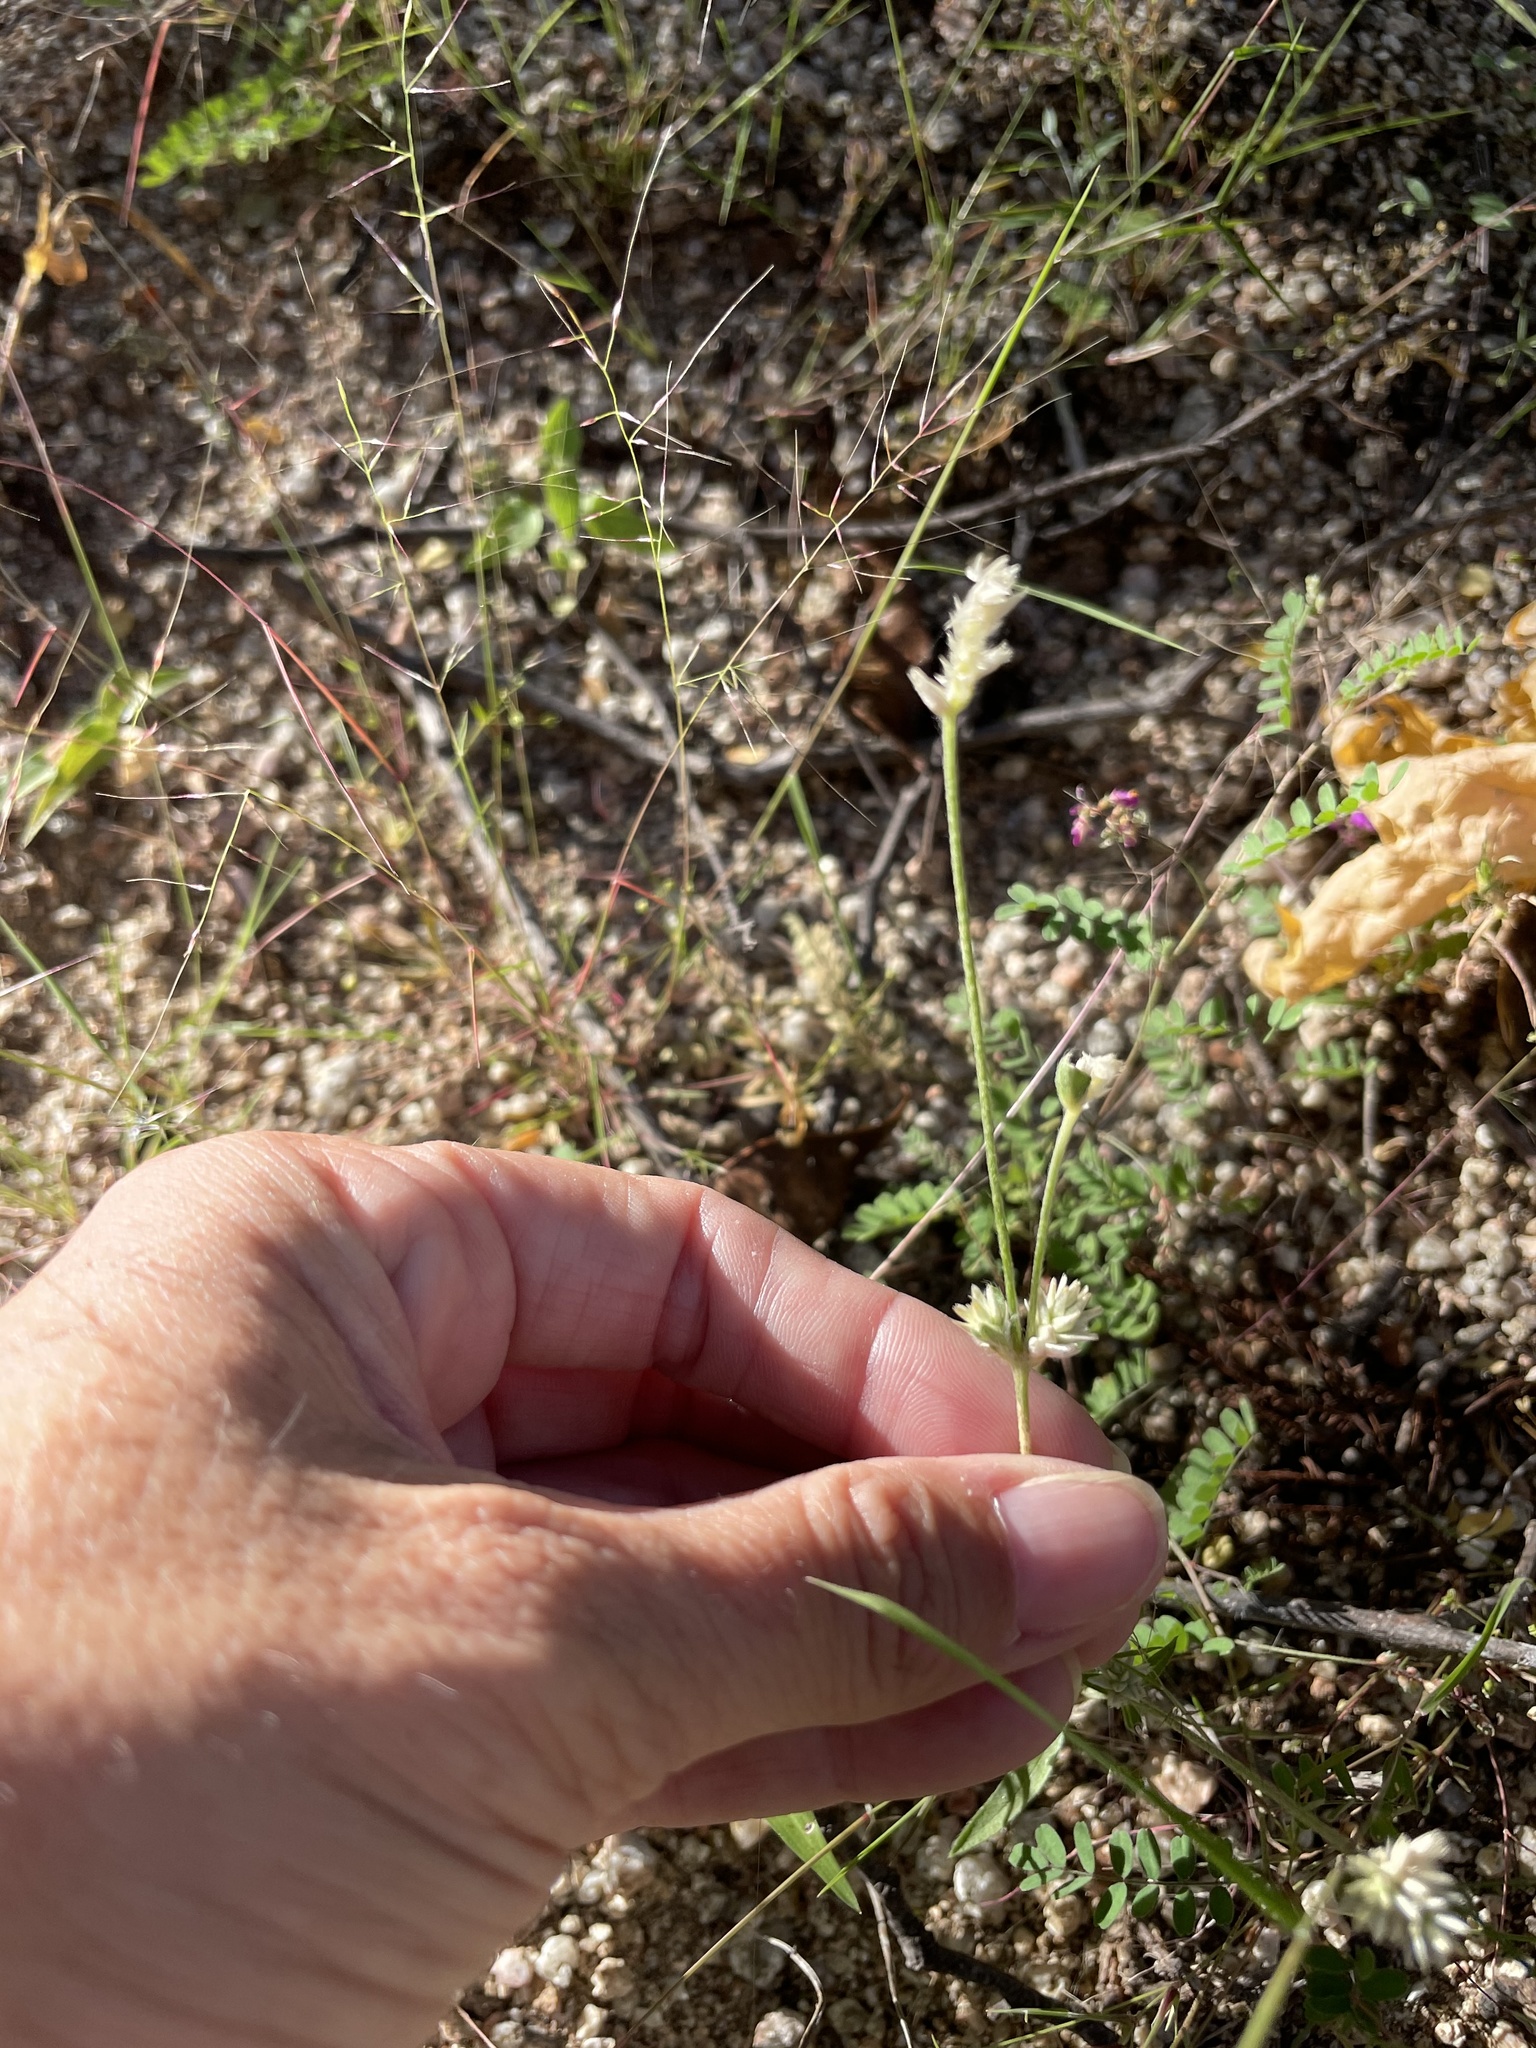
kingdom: Plantae
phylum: Tracheophyta
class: Magnoliopsida
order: Caryophyllales
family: Amaranthaceae
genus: Gomphrena
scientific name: Gomphrena sonorae
